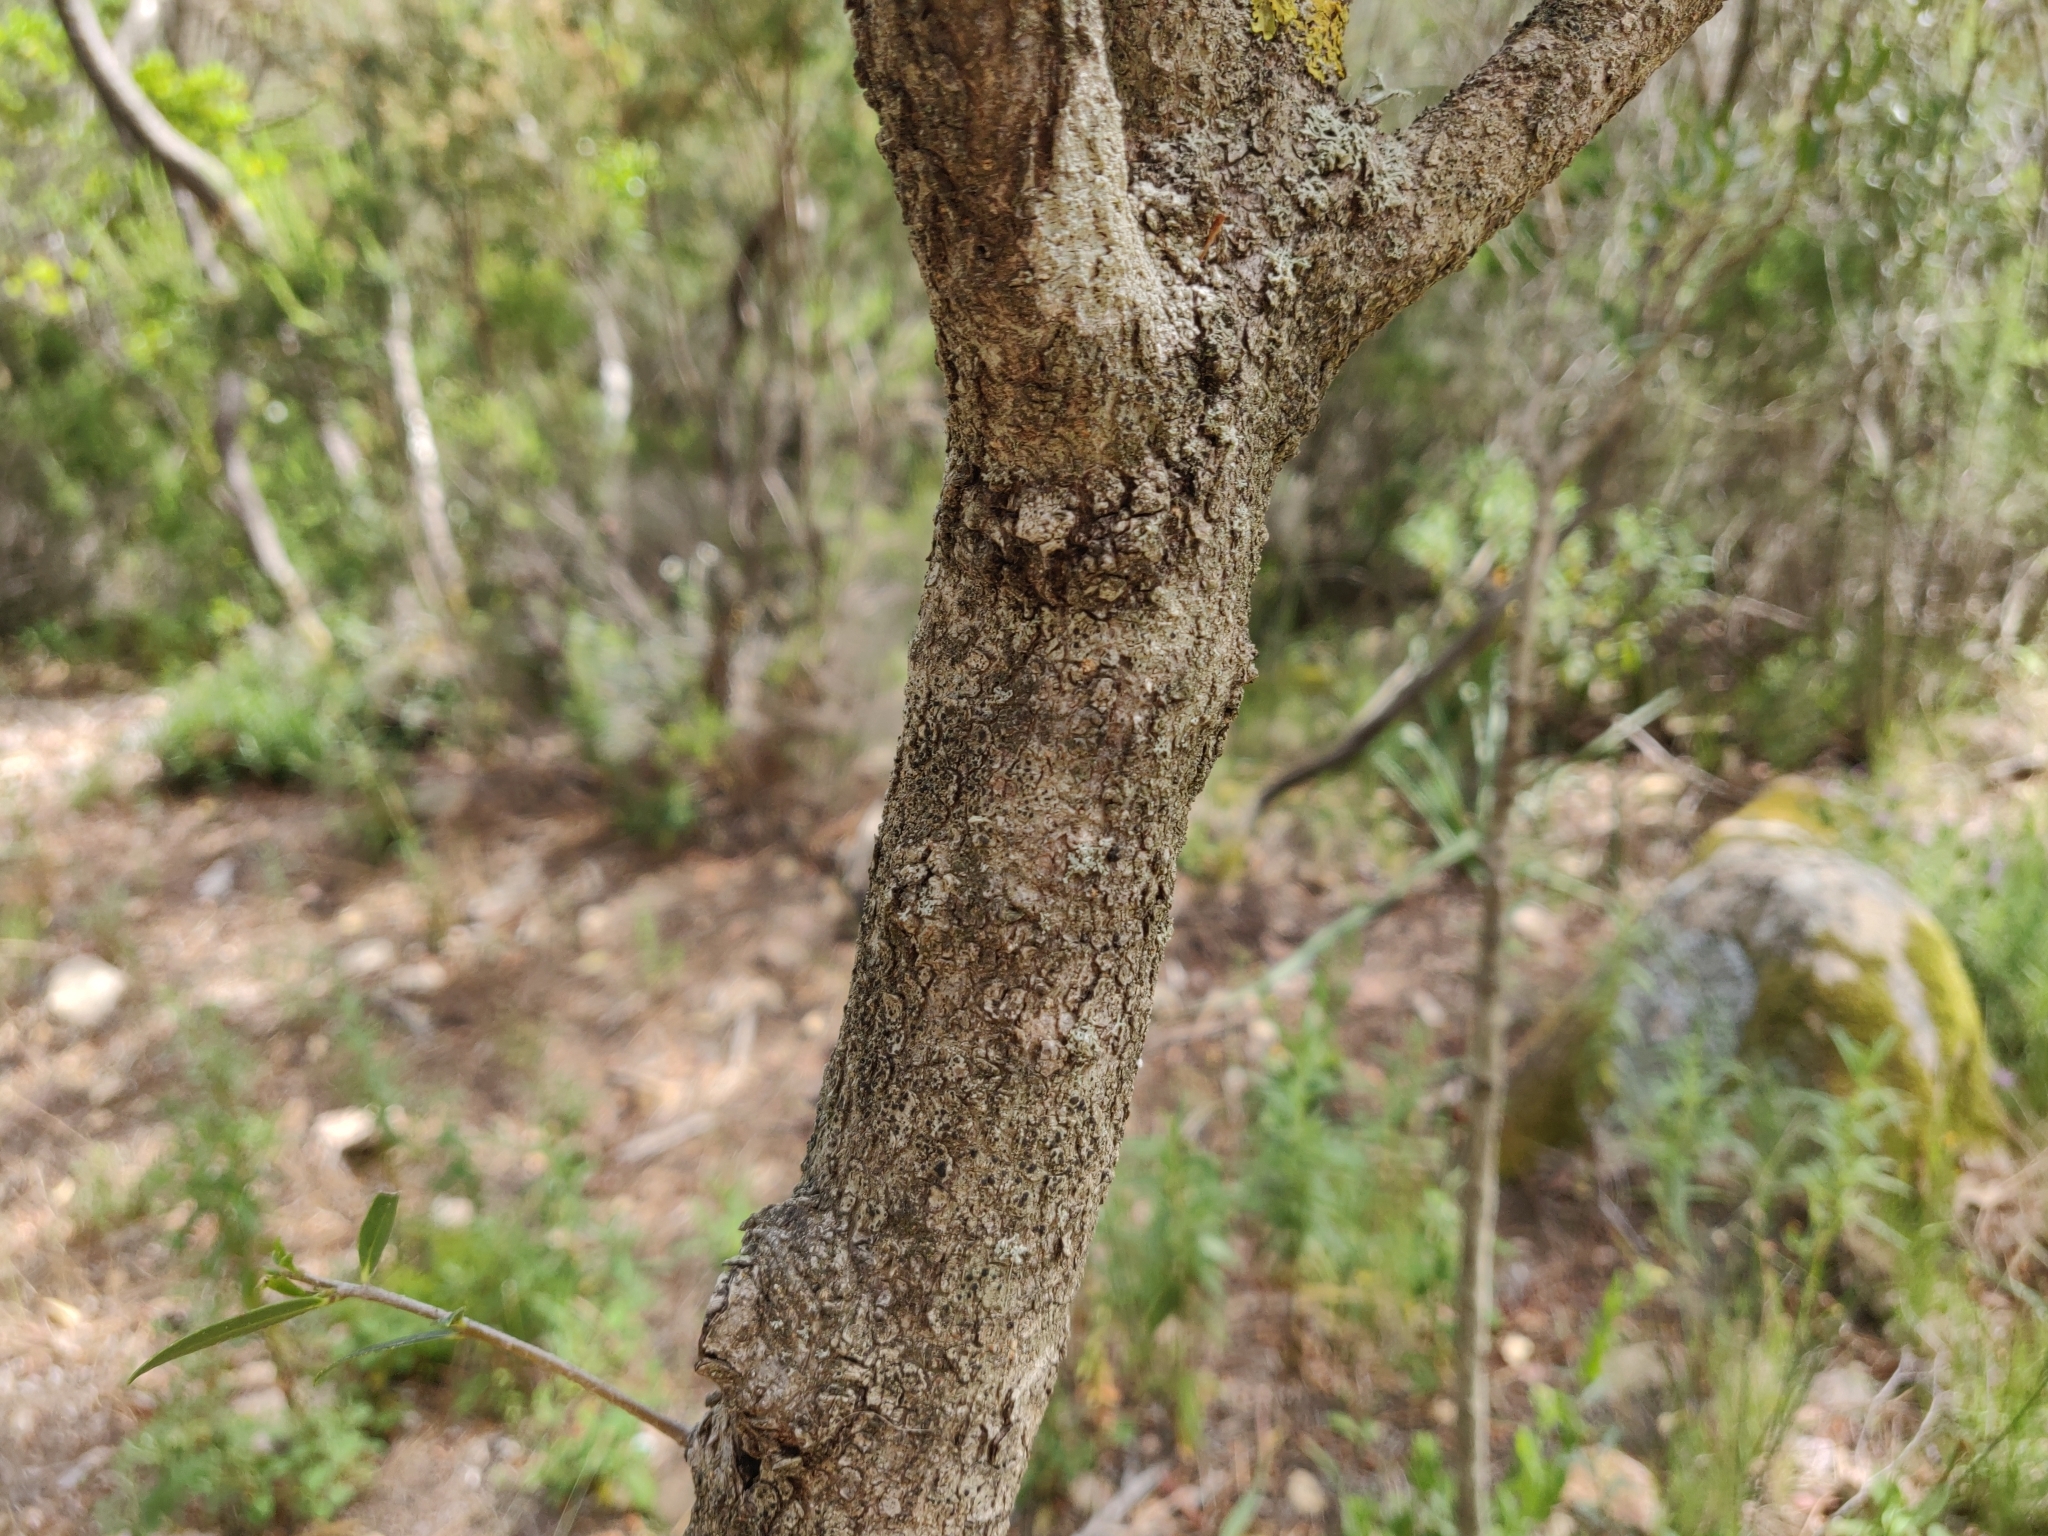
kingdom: Plantae
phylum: Tracheophyta
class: Magnoliopsida
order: Lamiales
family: Oleaceae
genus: Phillyrea
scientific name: Phillyrea angustifolia
